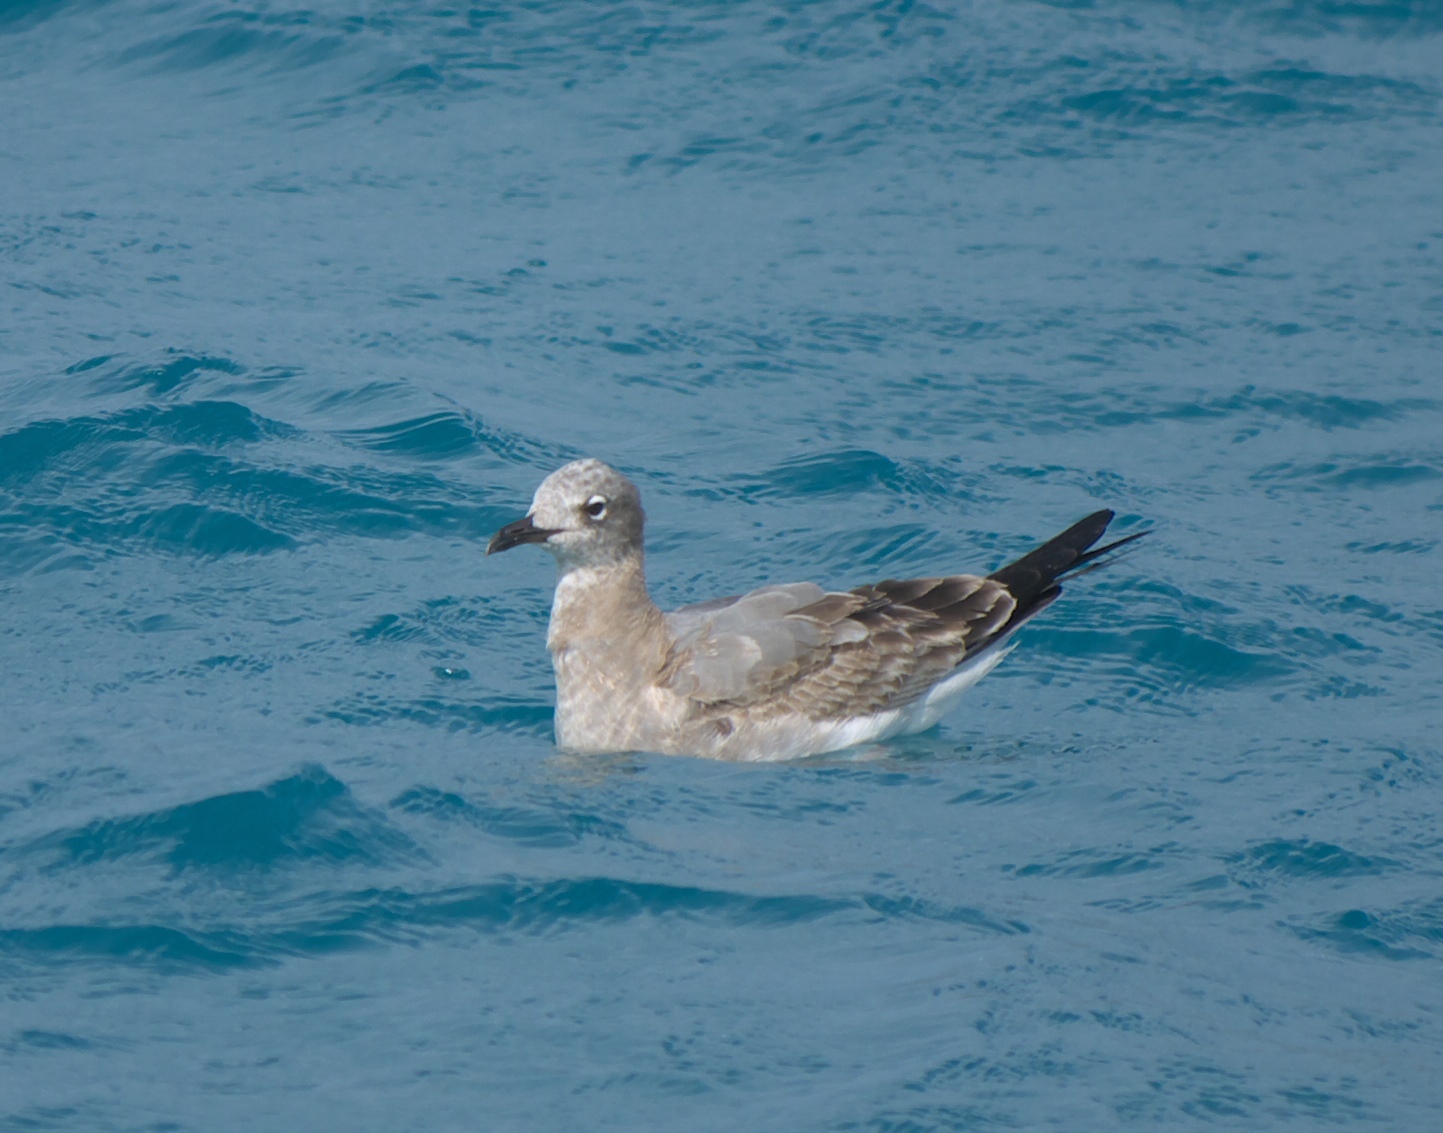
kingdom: Animalia
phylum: Chordata
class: Aves
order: Charadriiformes
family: Laridae
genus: Leucophaeus
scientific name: Leucophaeus atricilla
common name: Laughing gull
